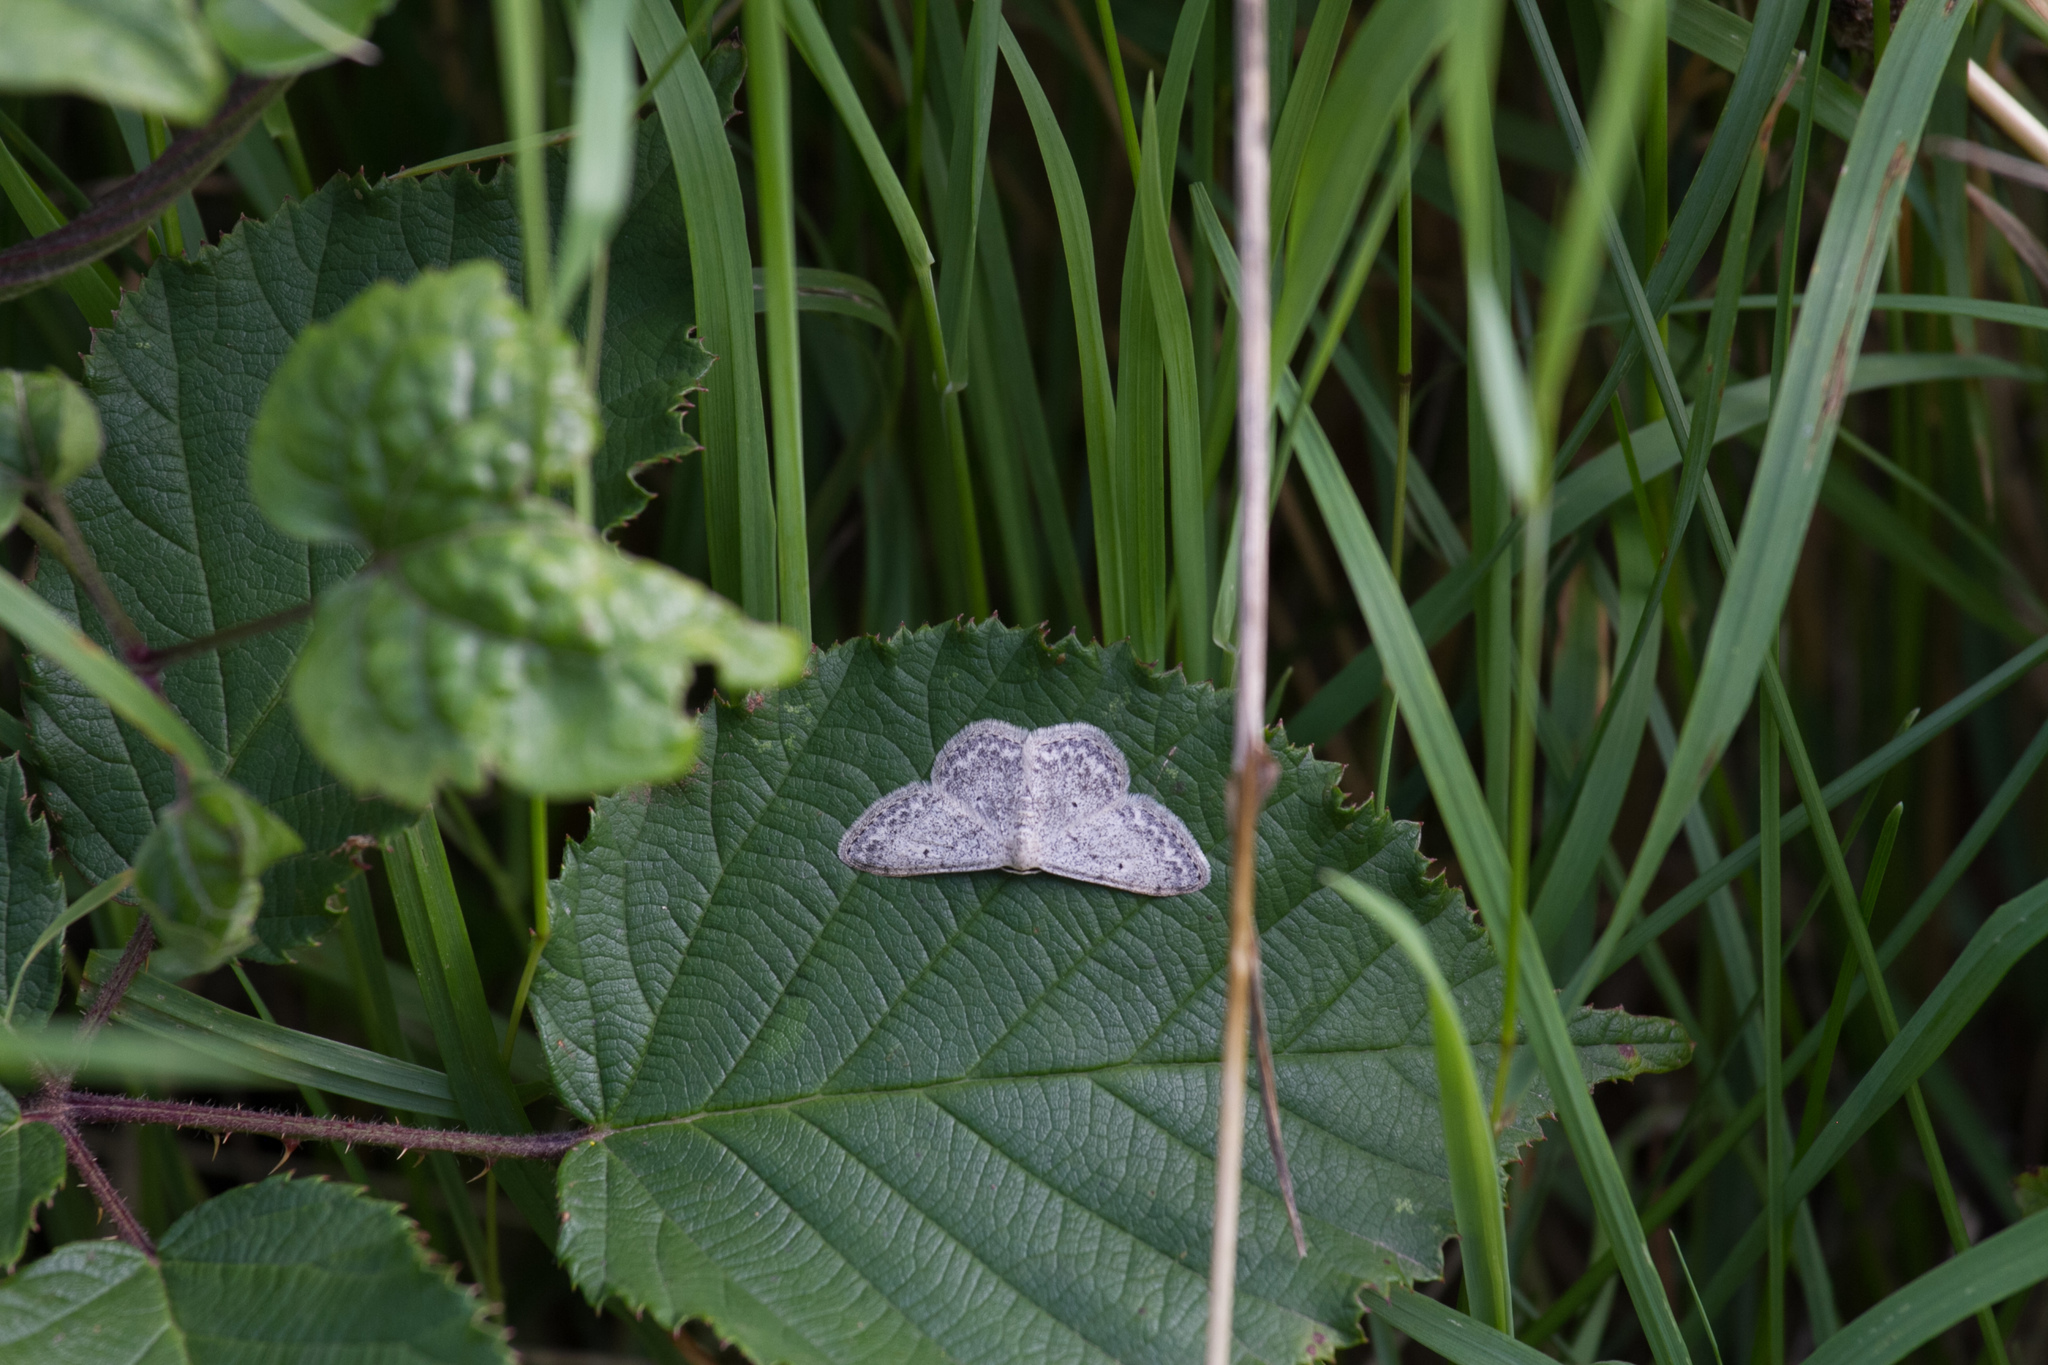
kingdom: Animalia
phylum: Arthropoda
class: Insecta
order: Lepidoptera
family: Geometridae
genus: Idaea
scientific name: Idaea seriata
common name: Small dusty wave
